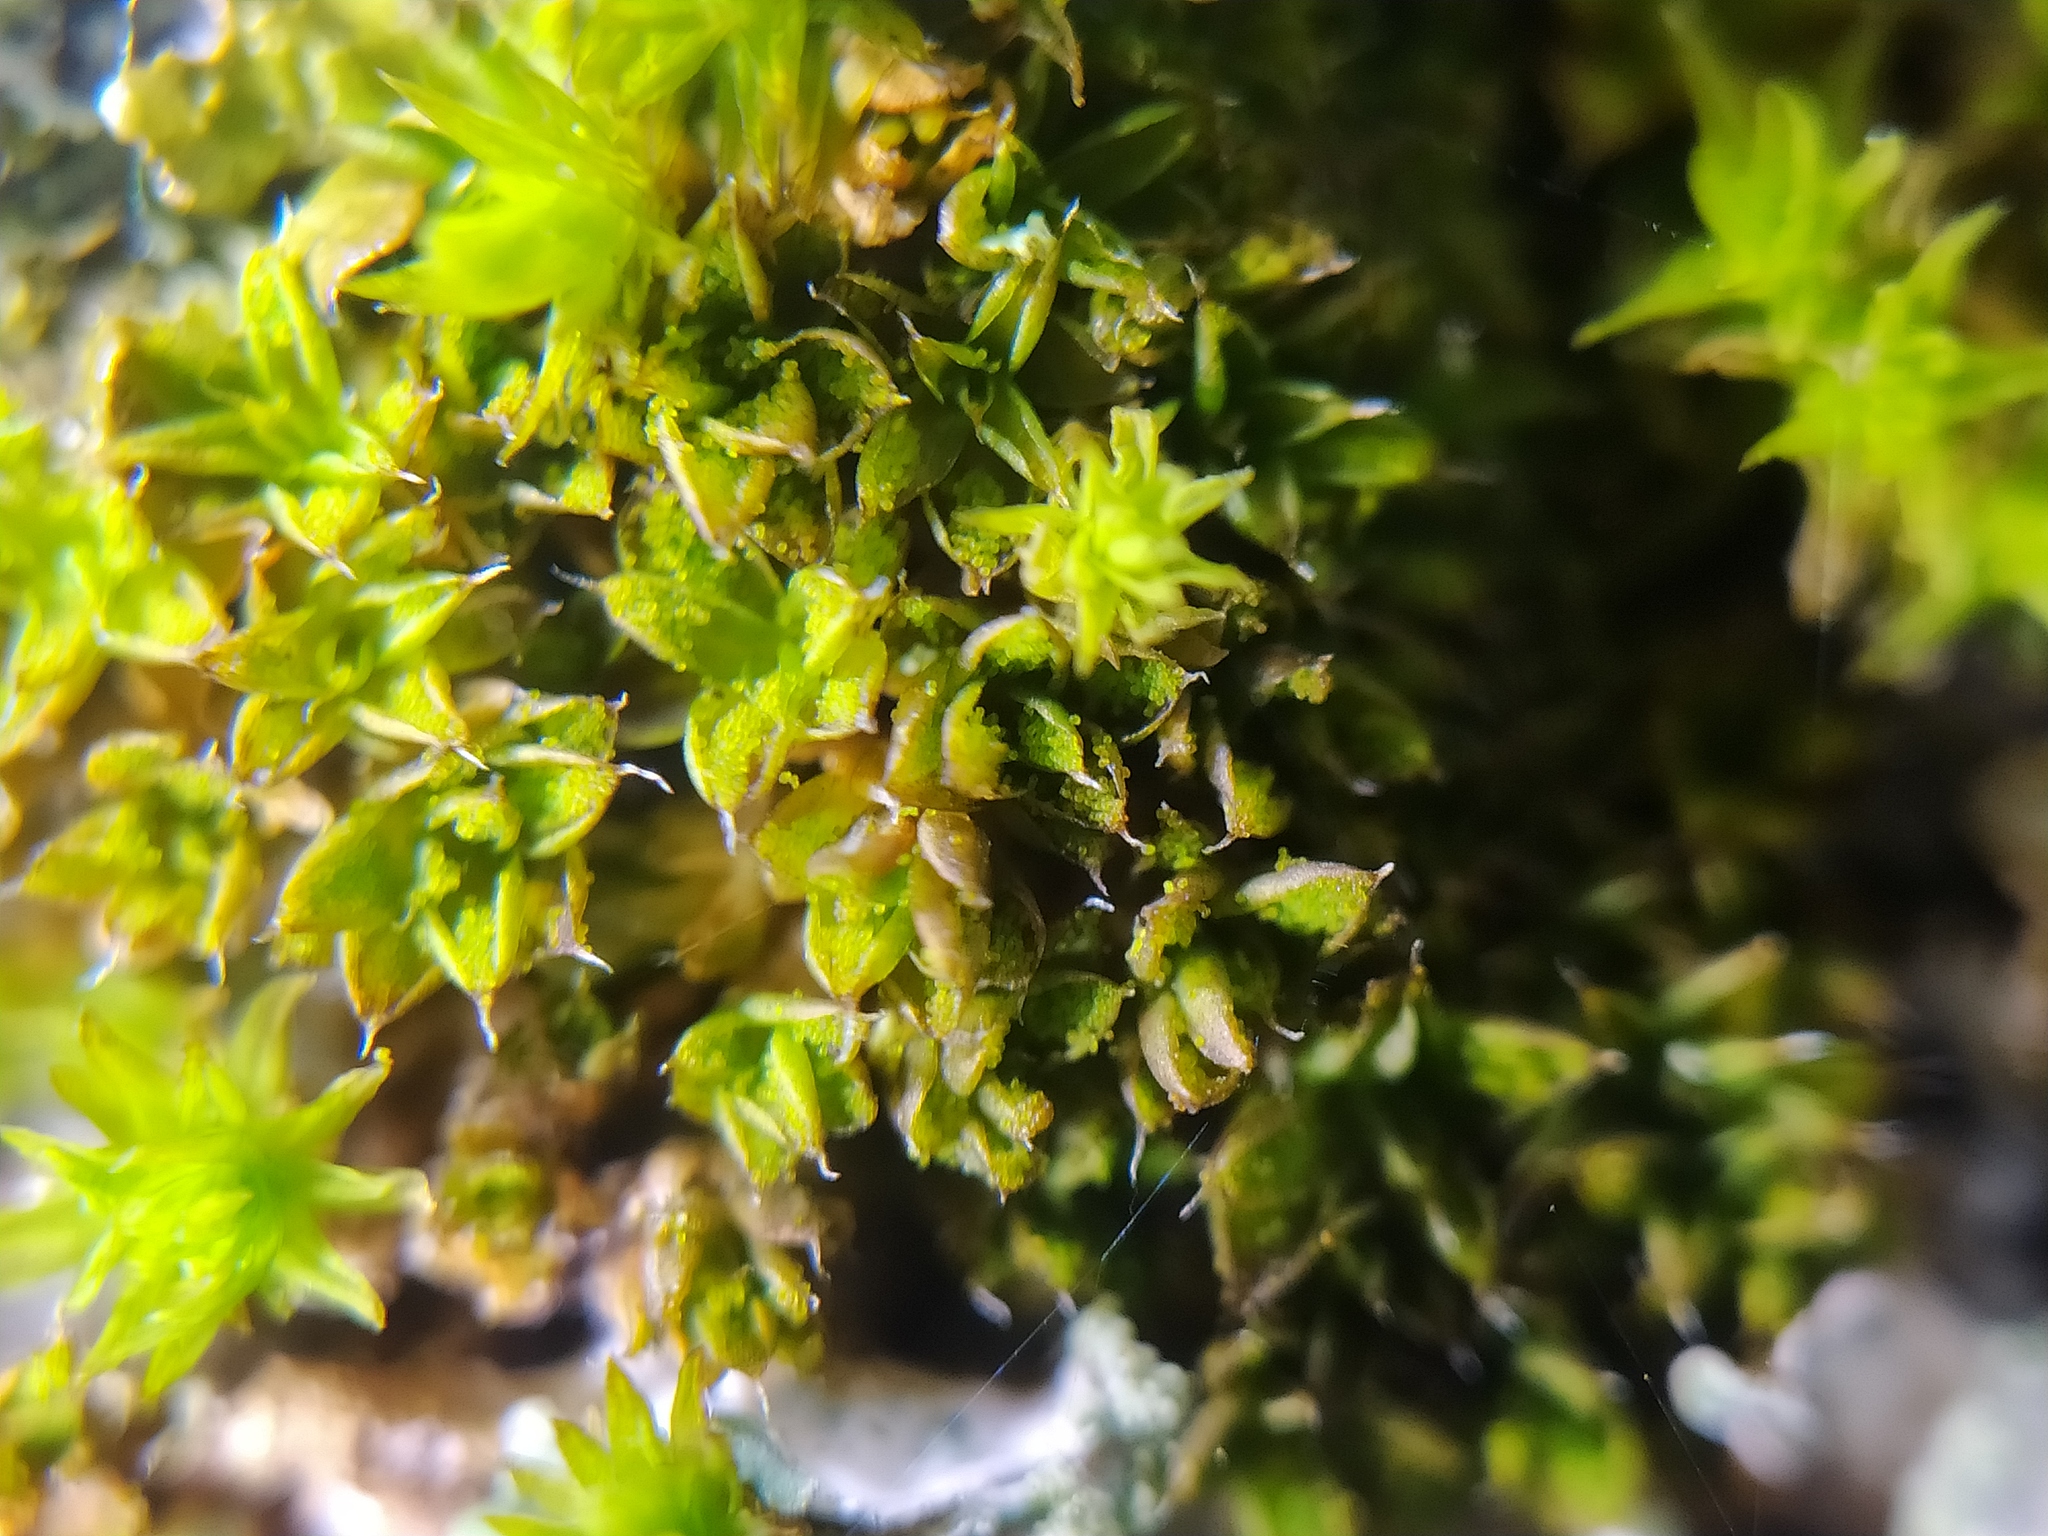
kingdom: Plantae
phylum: Bryophyta
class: Bryopsida
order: Pottiales
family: Pottiaceae
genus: Syntrichia
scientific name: Syntrichia papillosa
